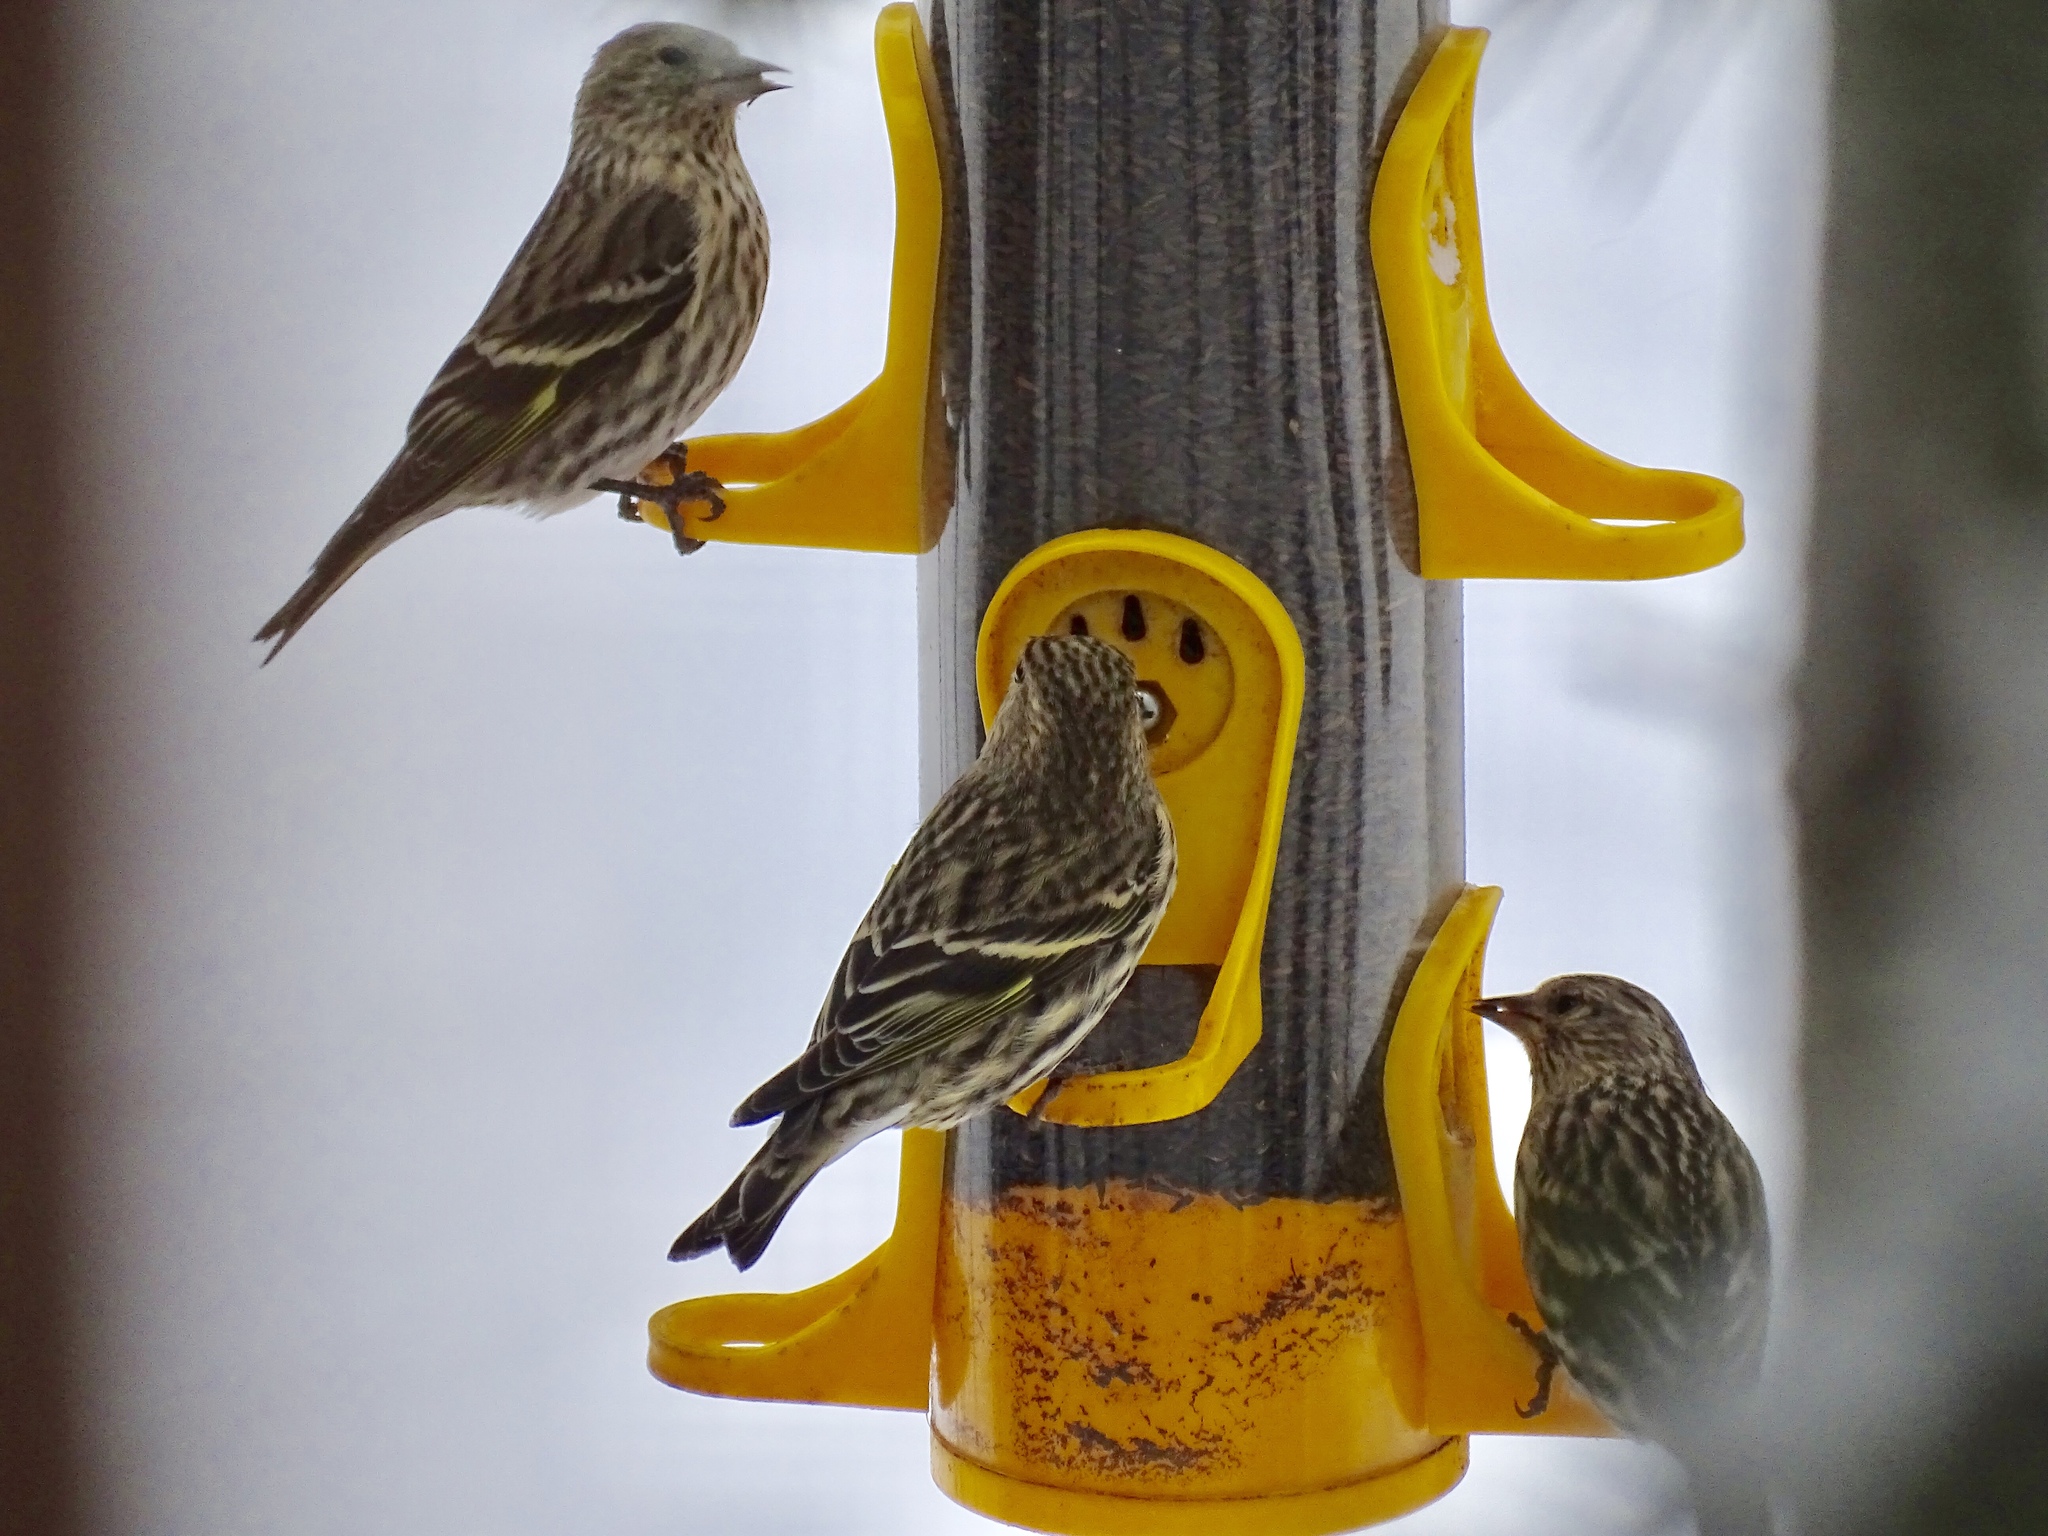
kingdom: Animalia
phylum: Chordata
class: Aves
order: Passeriformes
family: Fringillidae
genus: Spinus
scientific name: Spinus pinus
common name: Pine siskin
